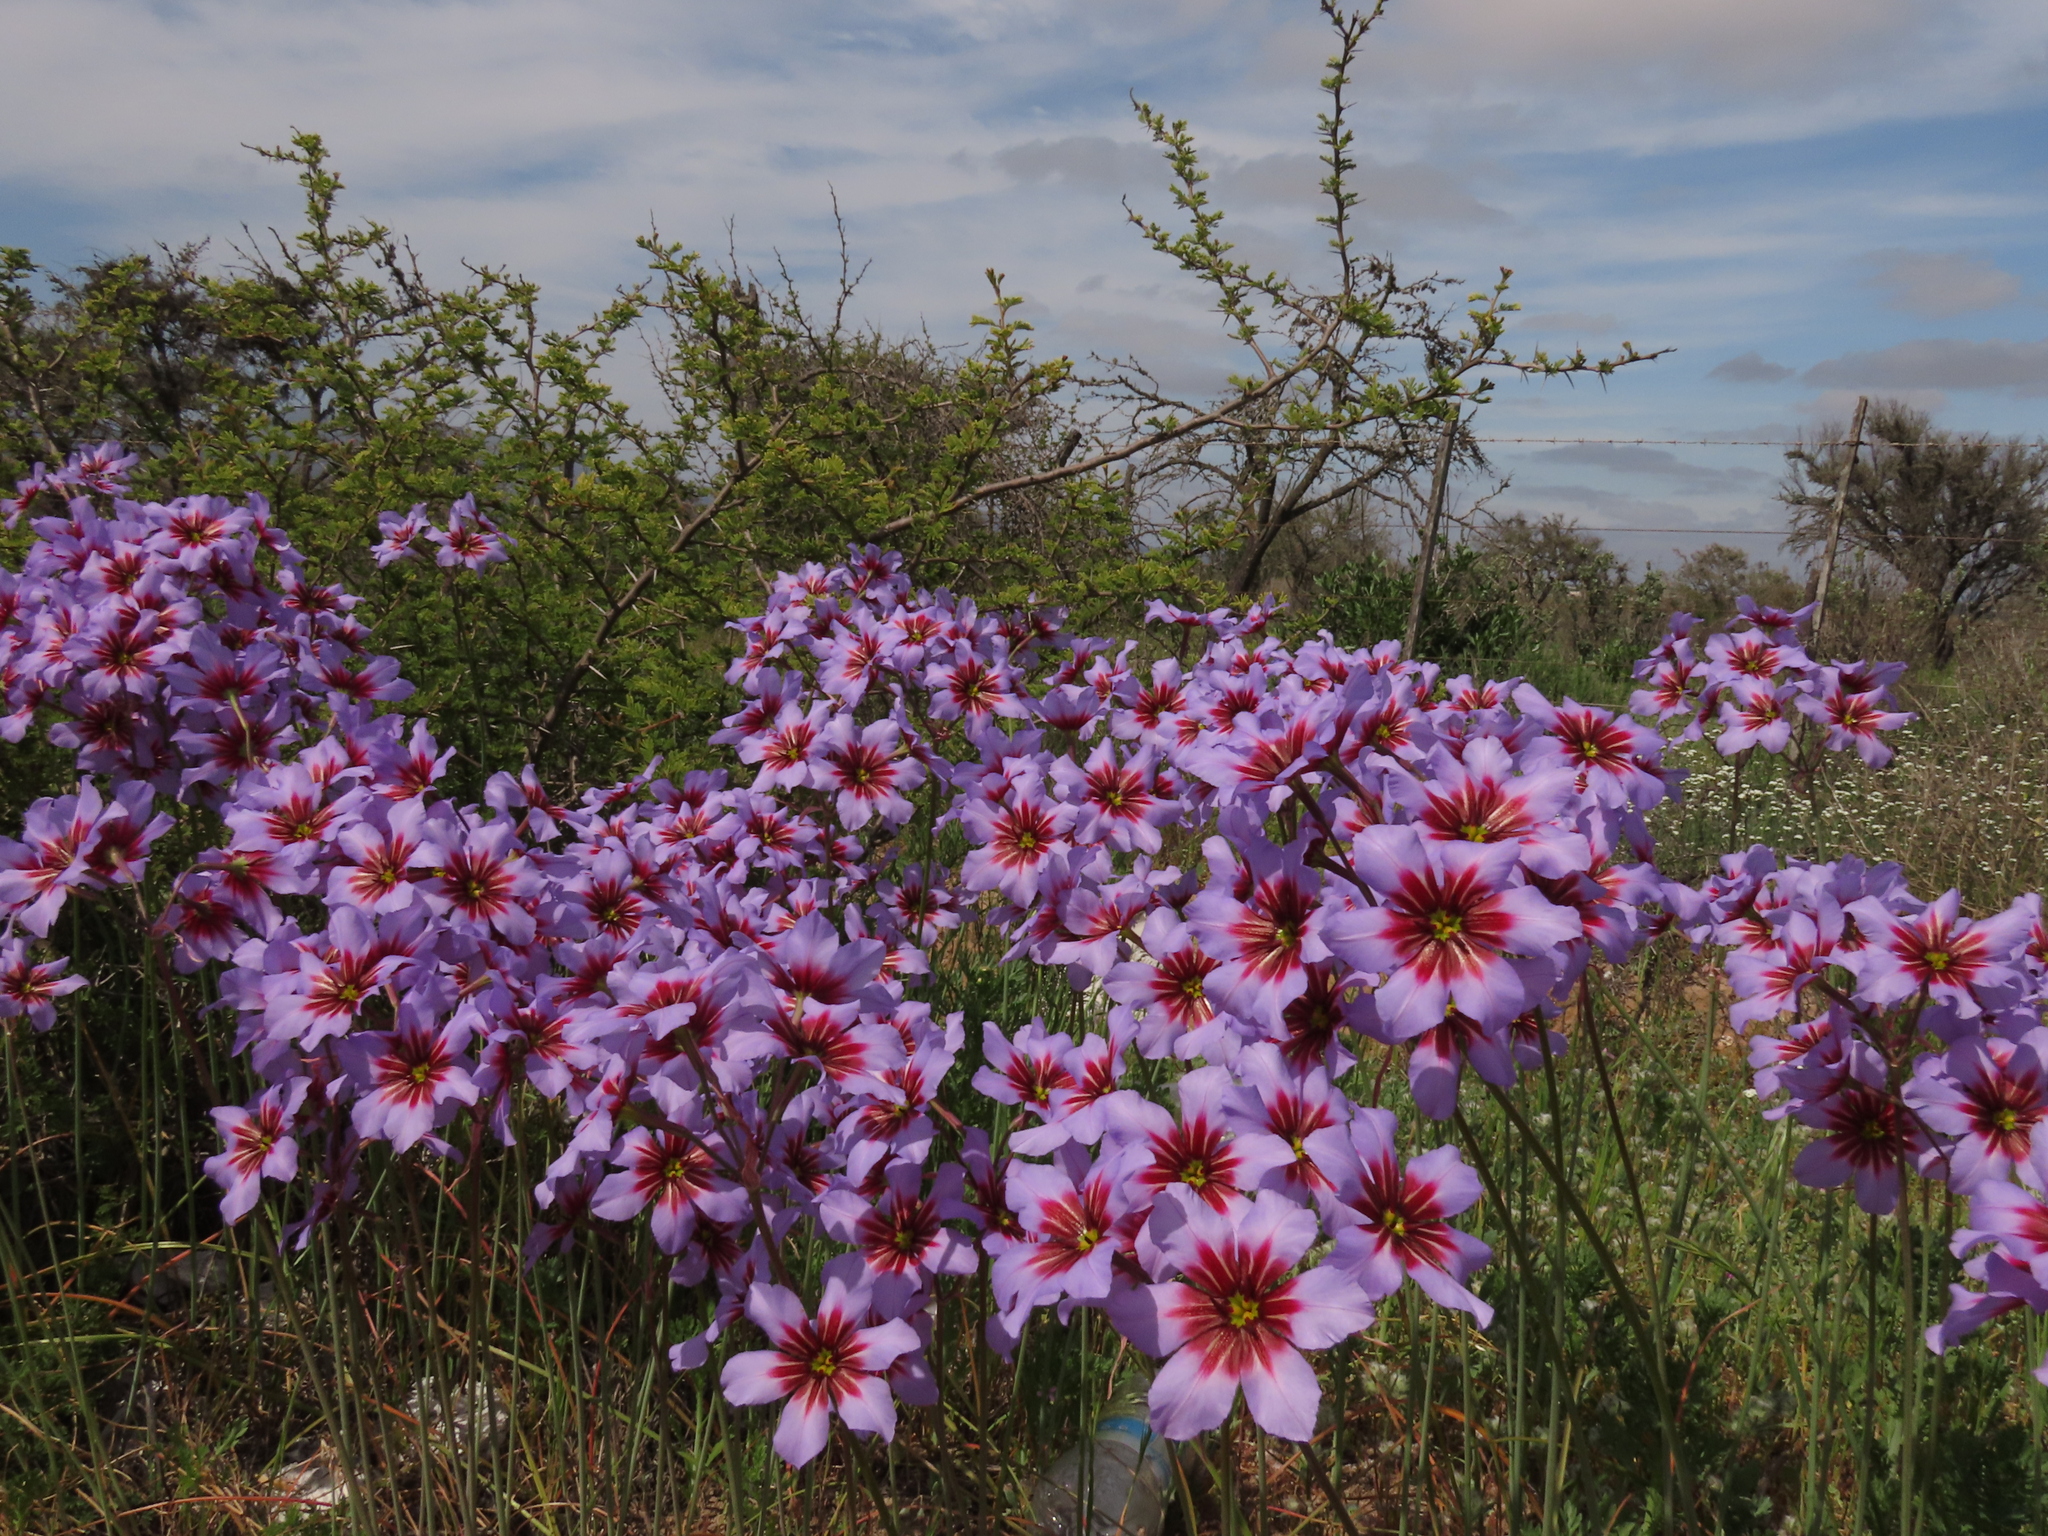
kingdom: Plantae
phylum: Tracheophyta
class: Liliopsida
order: Asparagales
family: Amaryllidaceae
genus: Leucocoryne
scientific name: Leucocoryne purpurea
